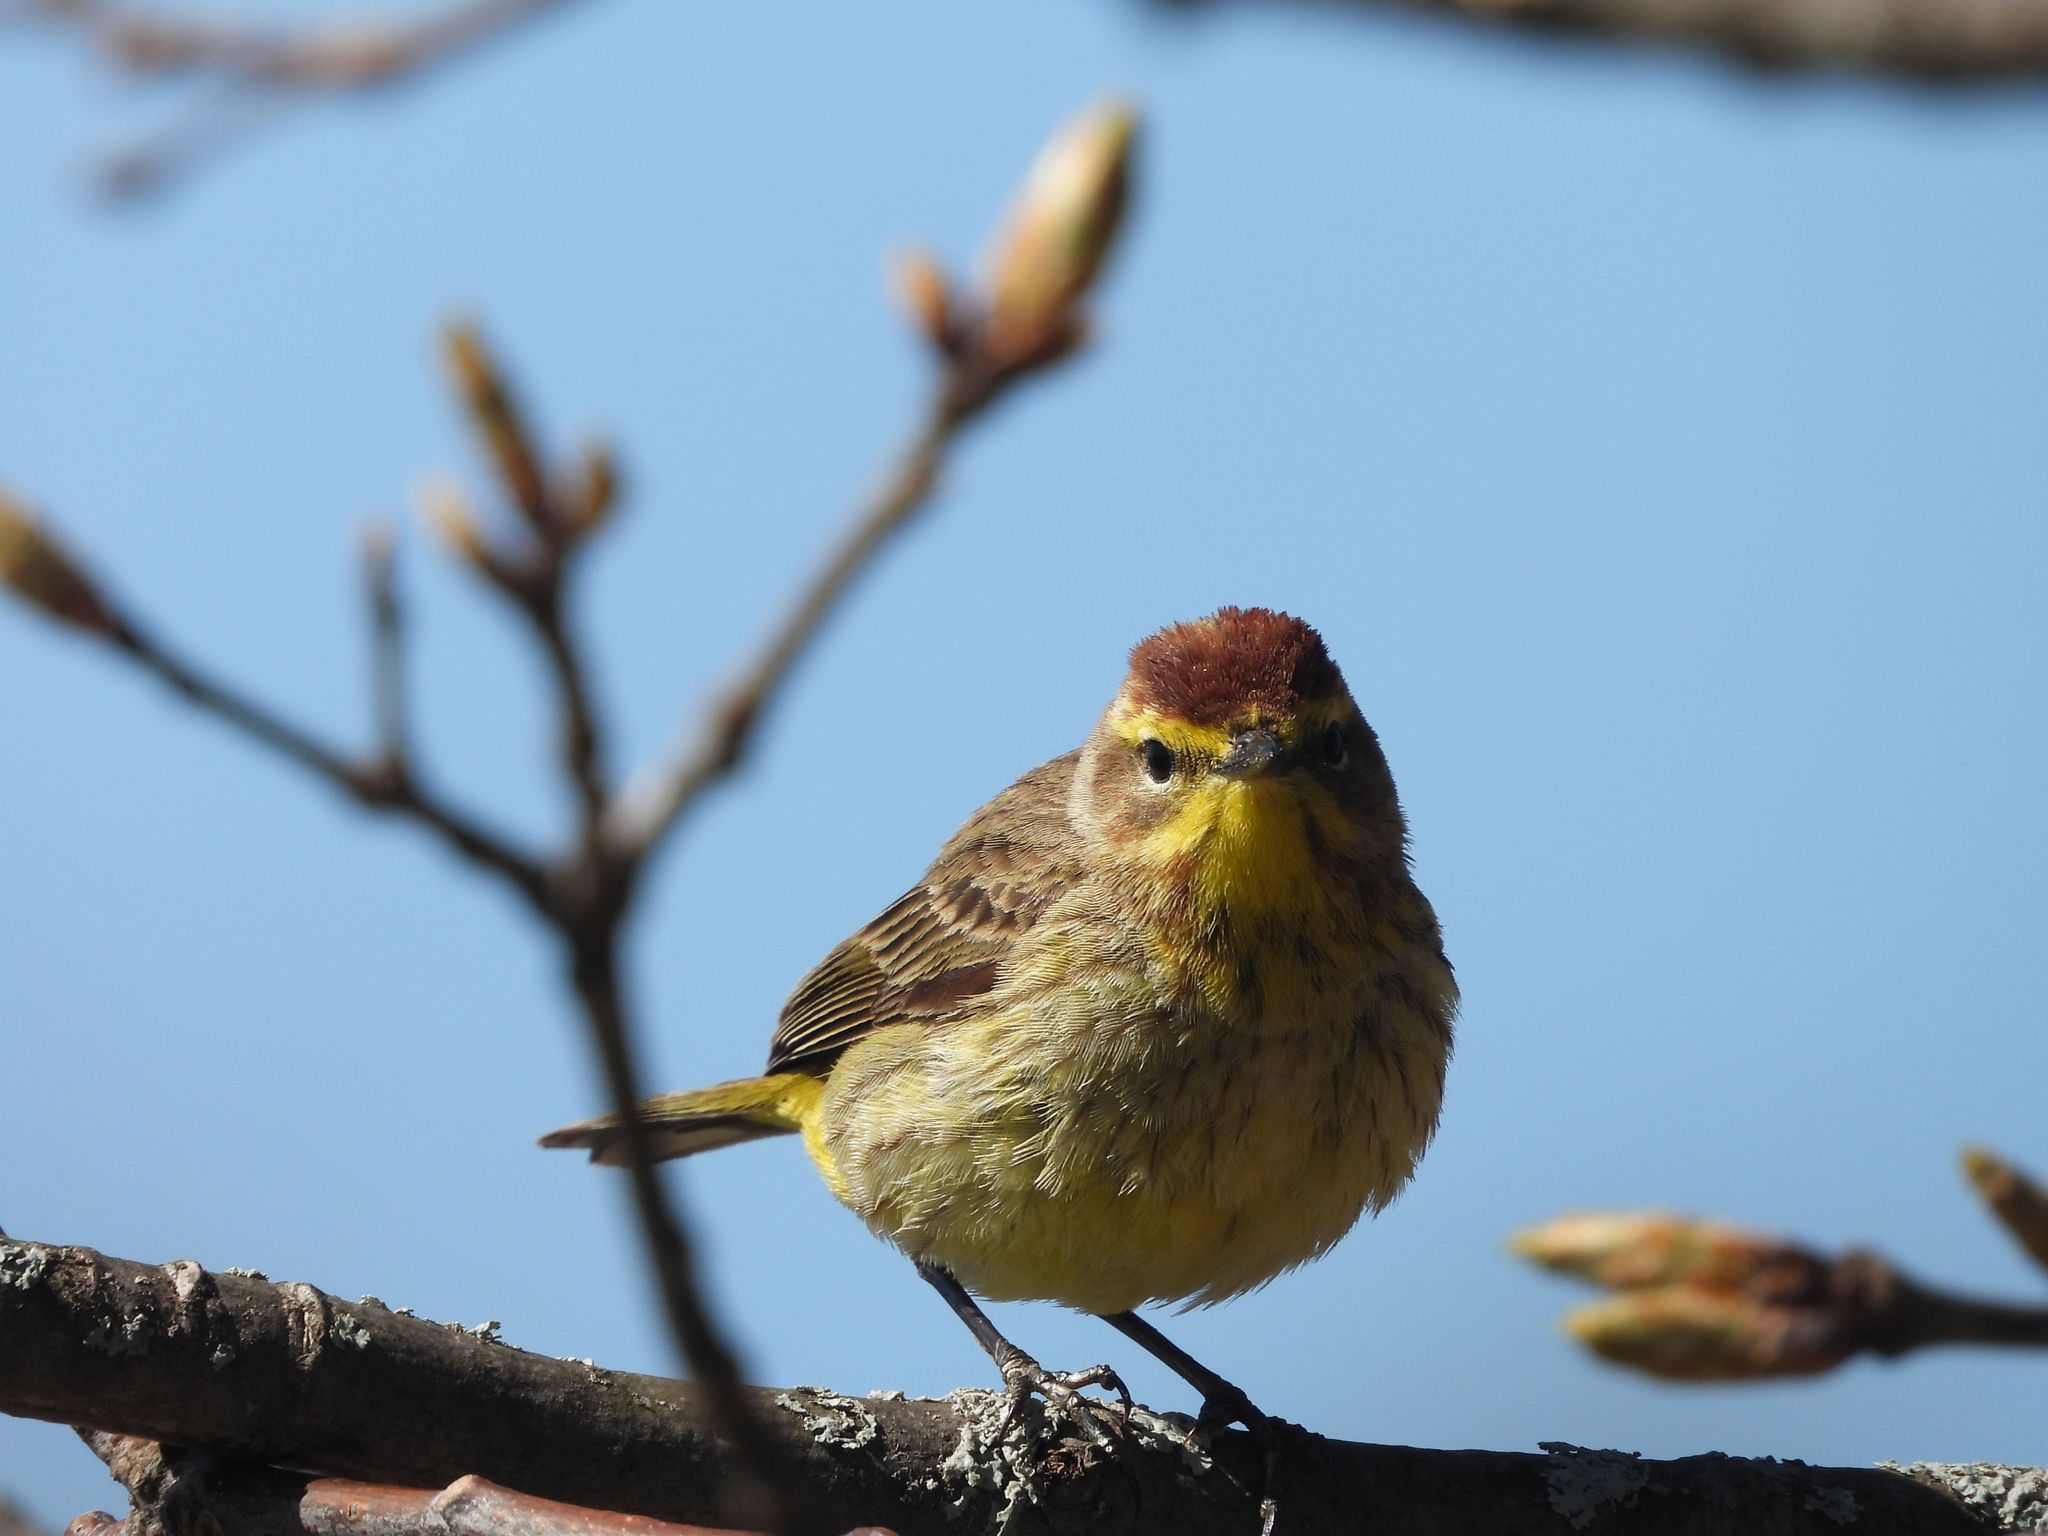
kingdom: Animalia
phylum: Chordata
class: Aves
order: Passeriformes
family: Parulidae
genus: Setophaga
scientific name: Setophaga palmarum
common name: Palm warbler
